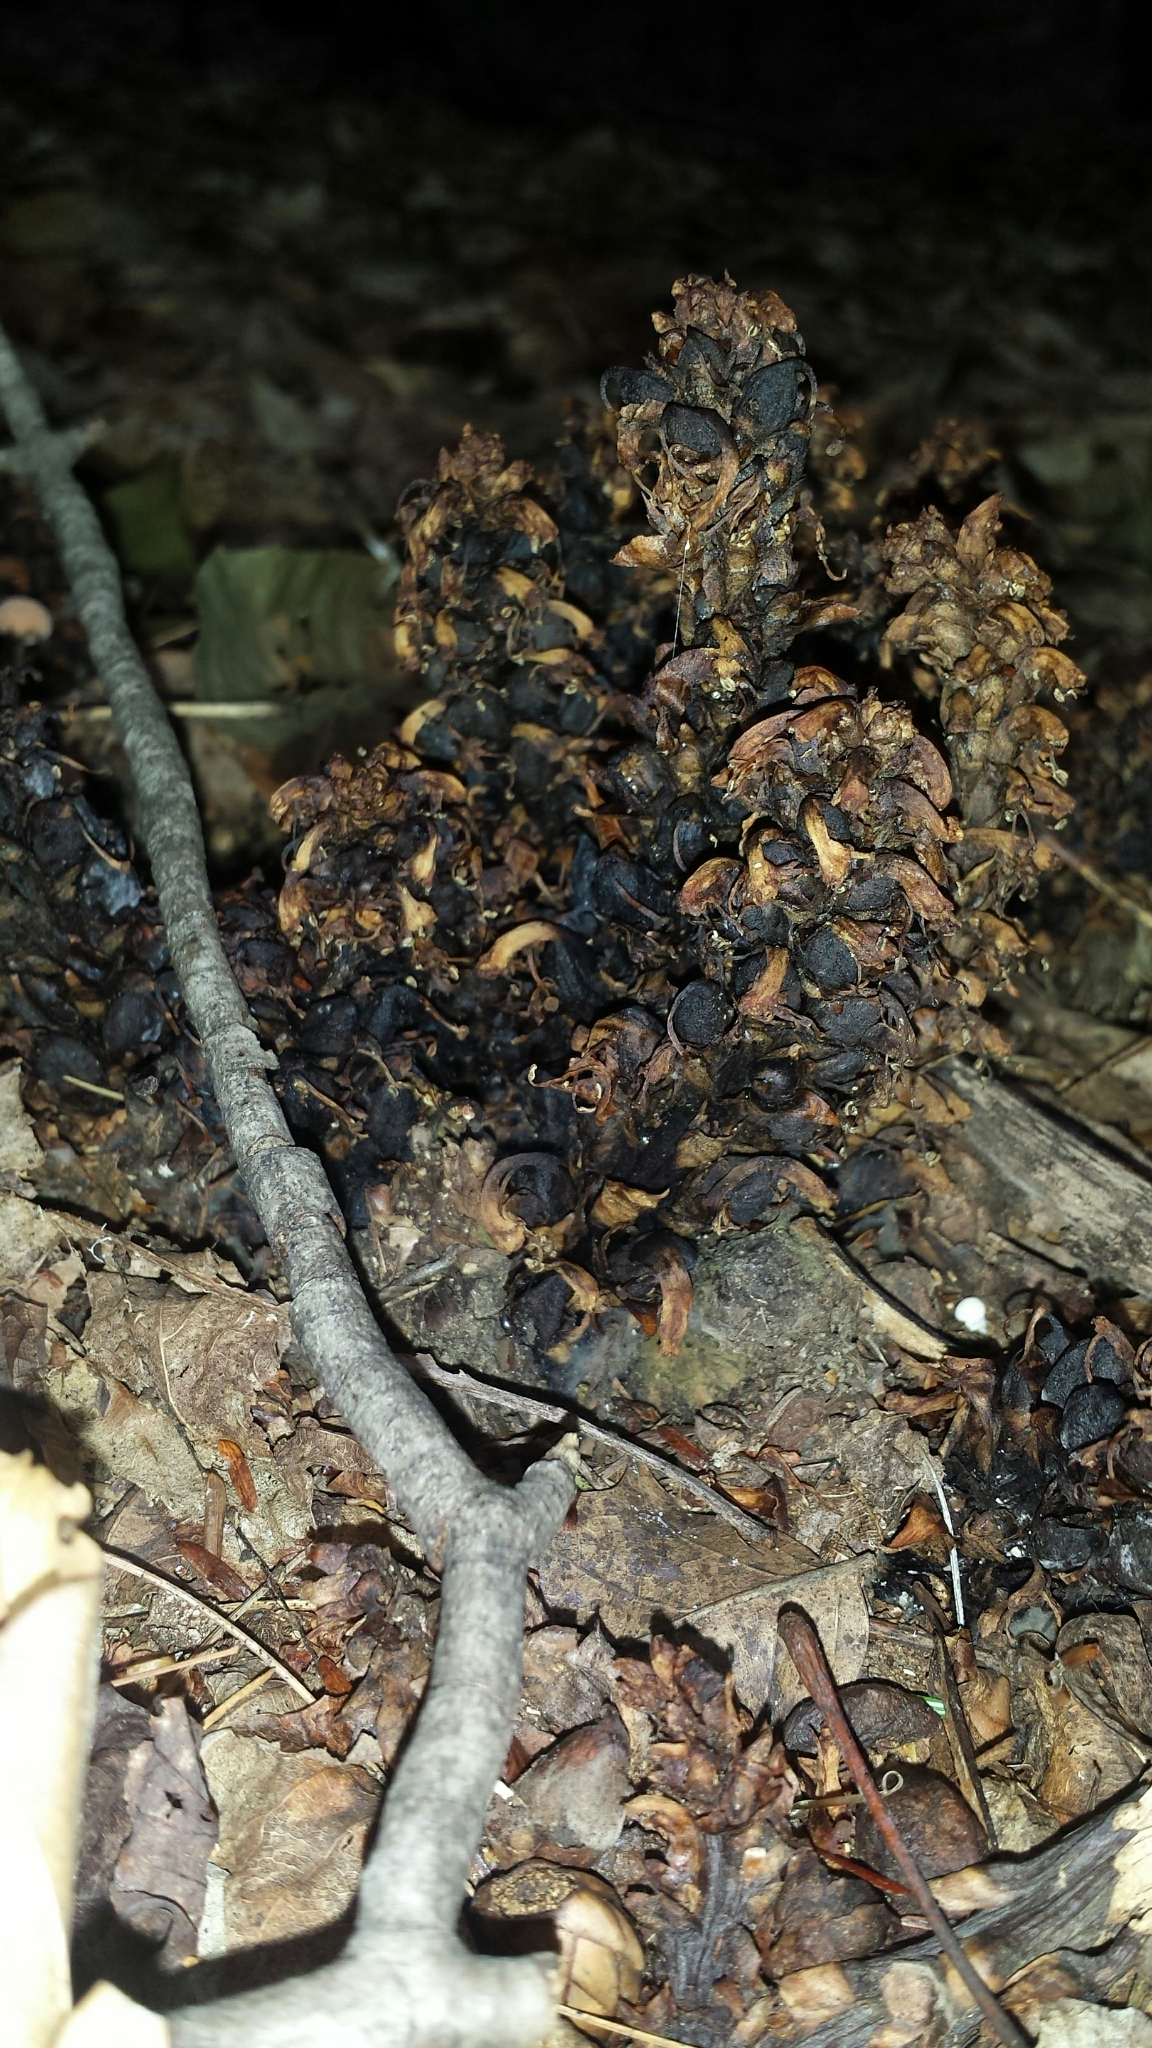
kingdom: Plantae
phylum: Tracheophyta
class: Magnoliopsida
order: Lamiales
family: Orobanchaceae
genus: Conopholis
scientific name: Conopholis americana
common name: American cancer-root
